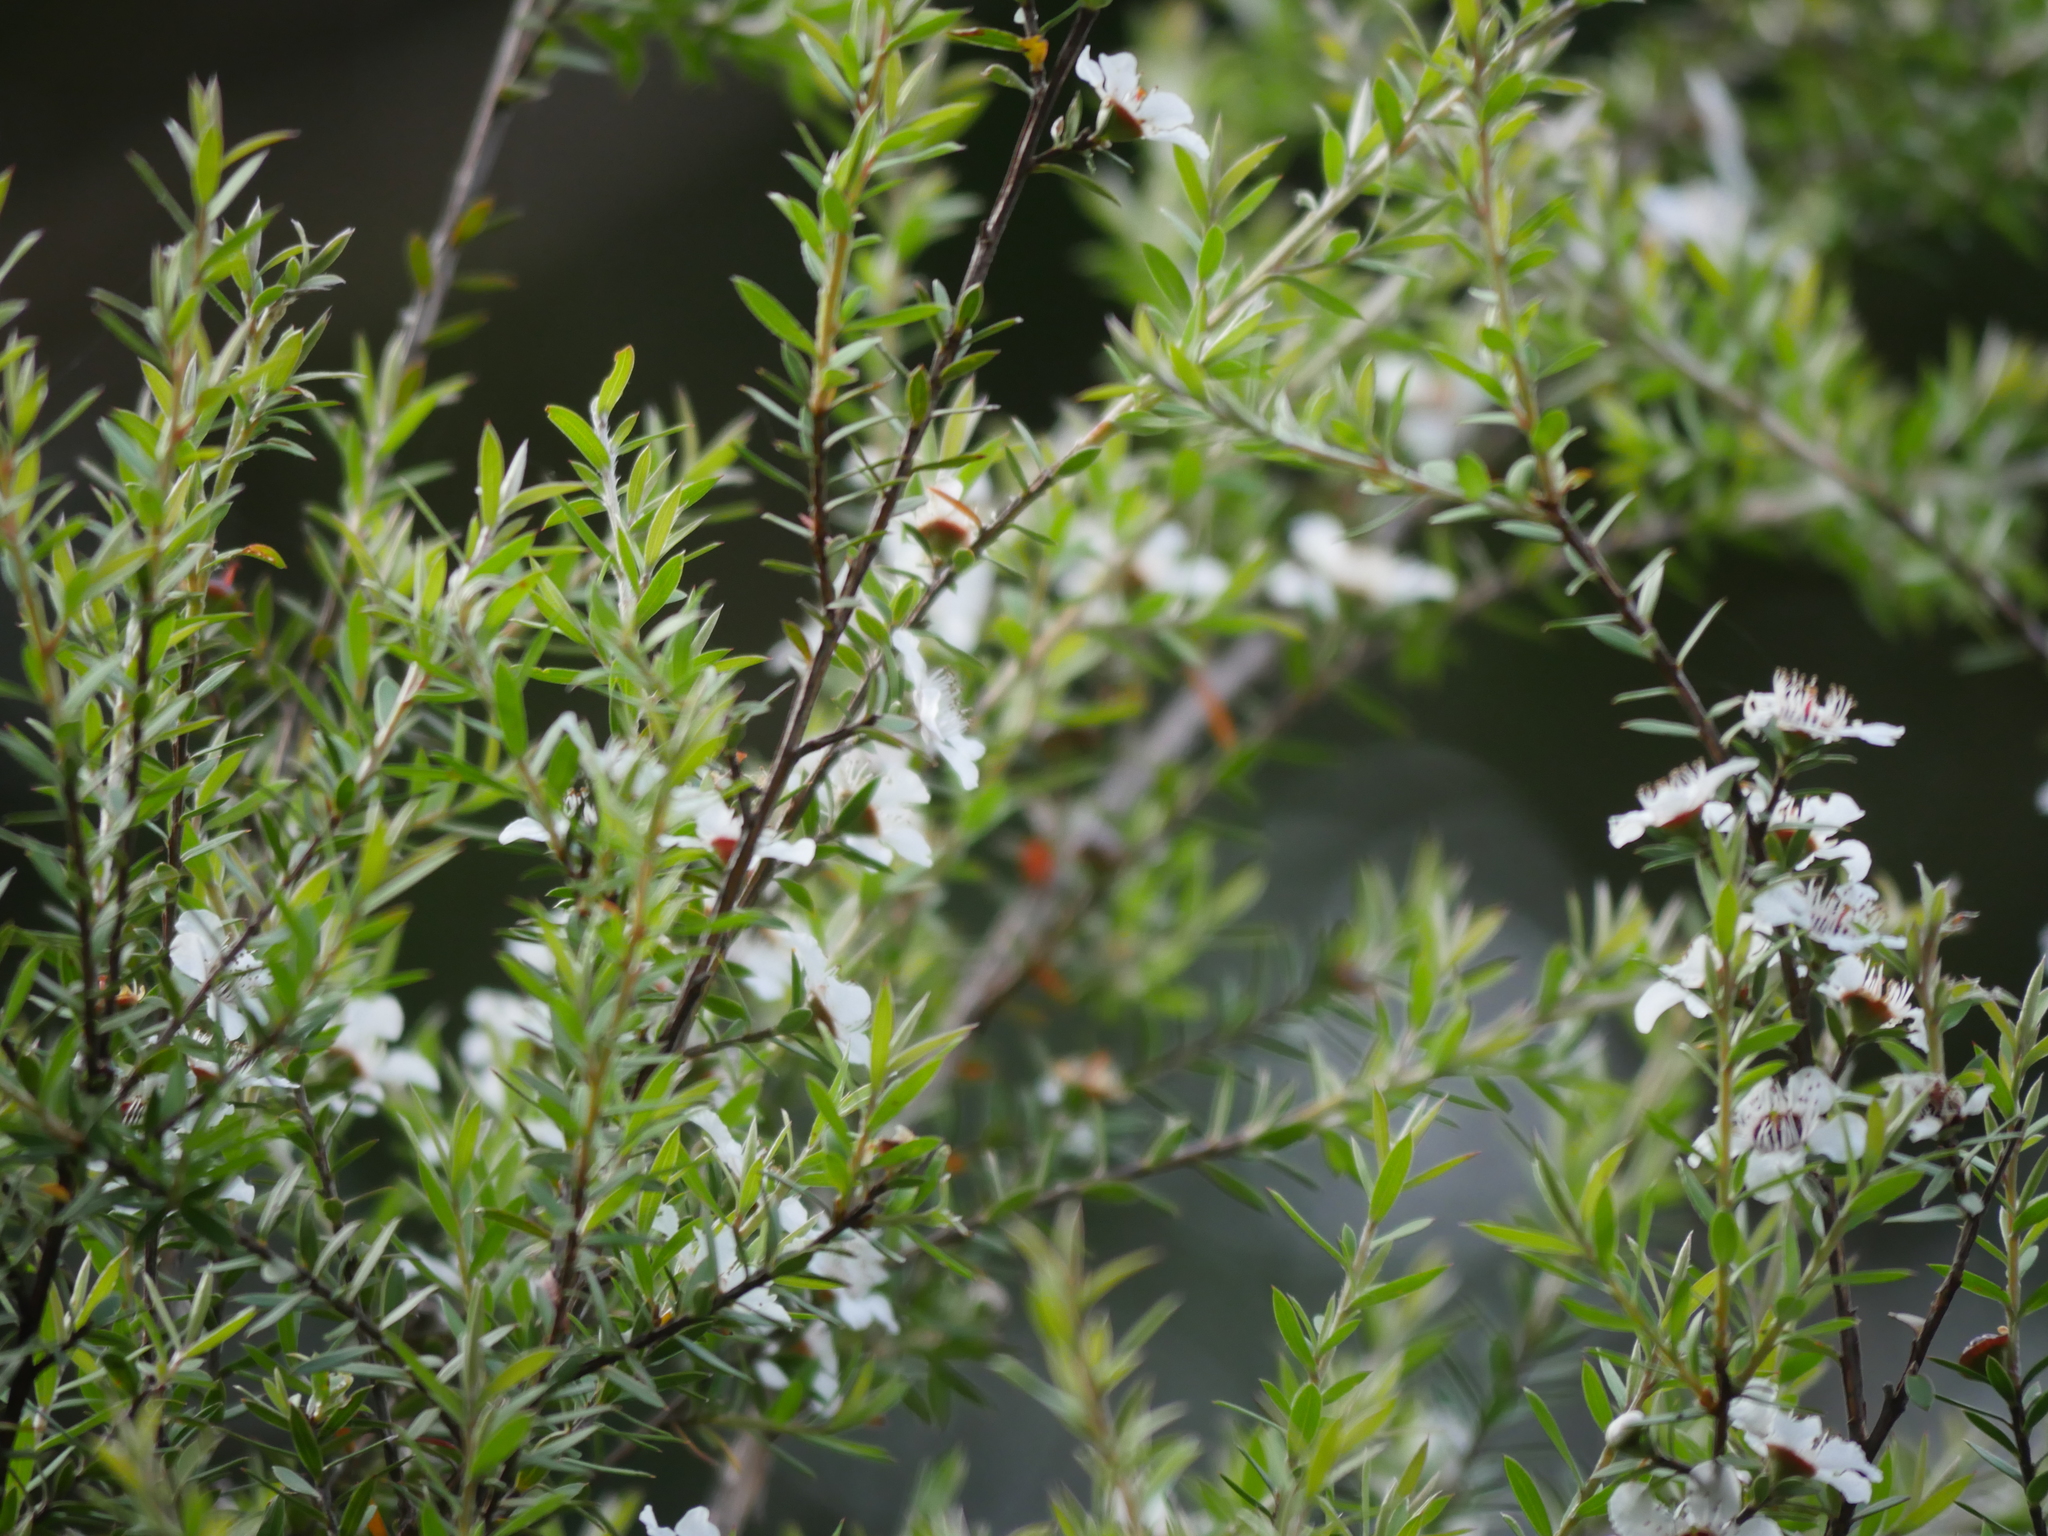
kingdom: Plantae
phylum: Tracheophyta
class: Magnoliopsida
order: Myrtales
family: Myrtaceae
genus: Leptospermum
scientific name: Leptospermum scoparium
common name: Broom tea-tree
